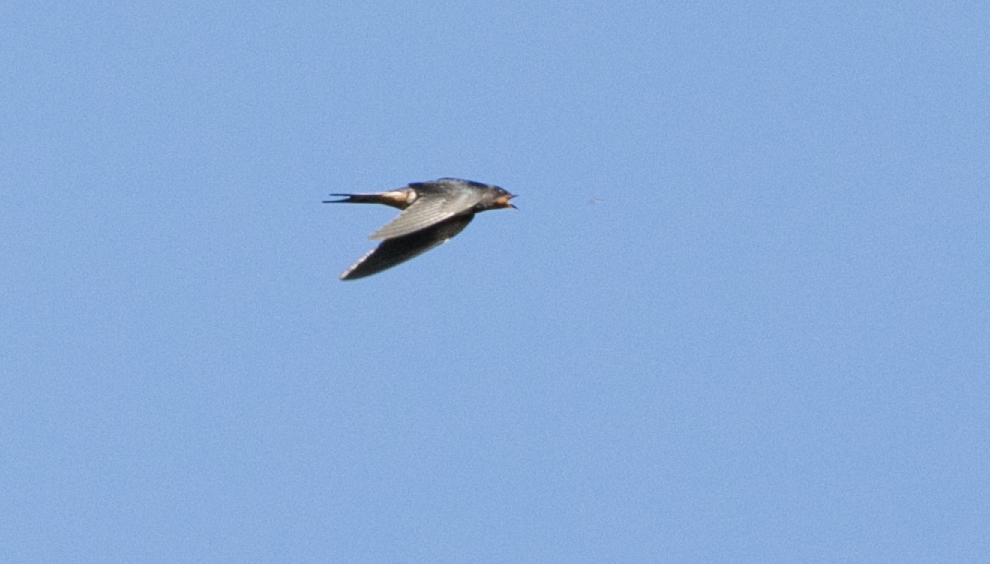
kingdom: Animalia
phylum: Chordata
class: Aves
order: Passeriformes
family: Hirundinidae
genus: Hirundo
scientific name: Hirundo rustica
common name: Barn swallow
